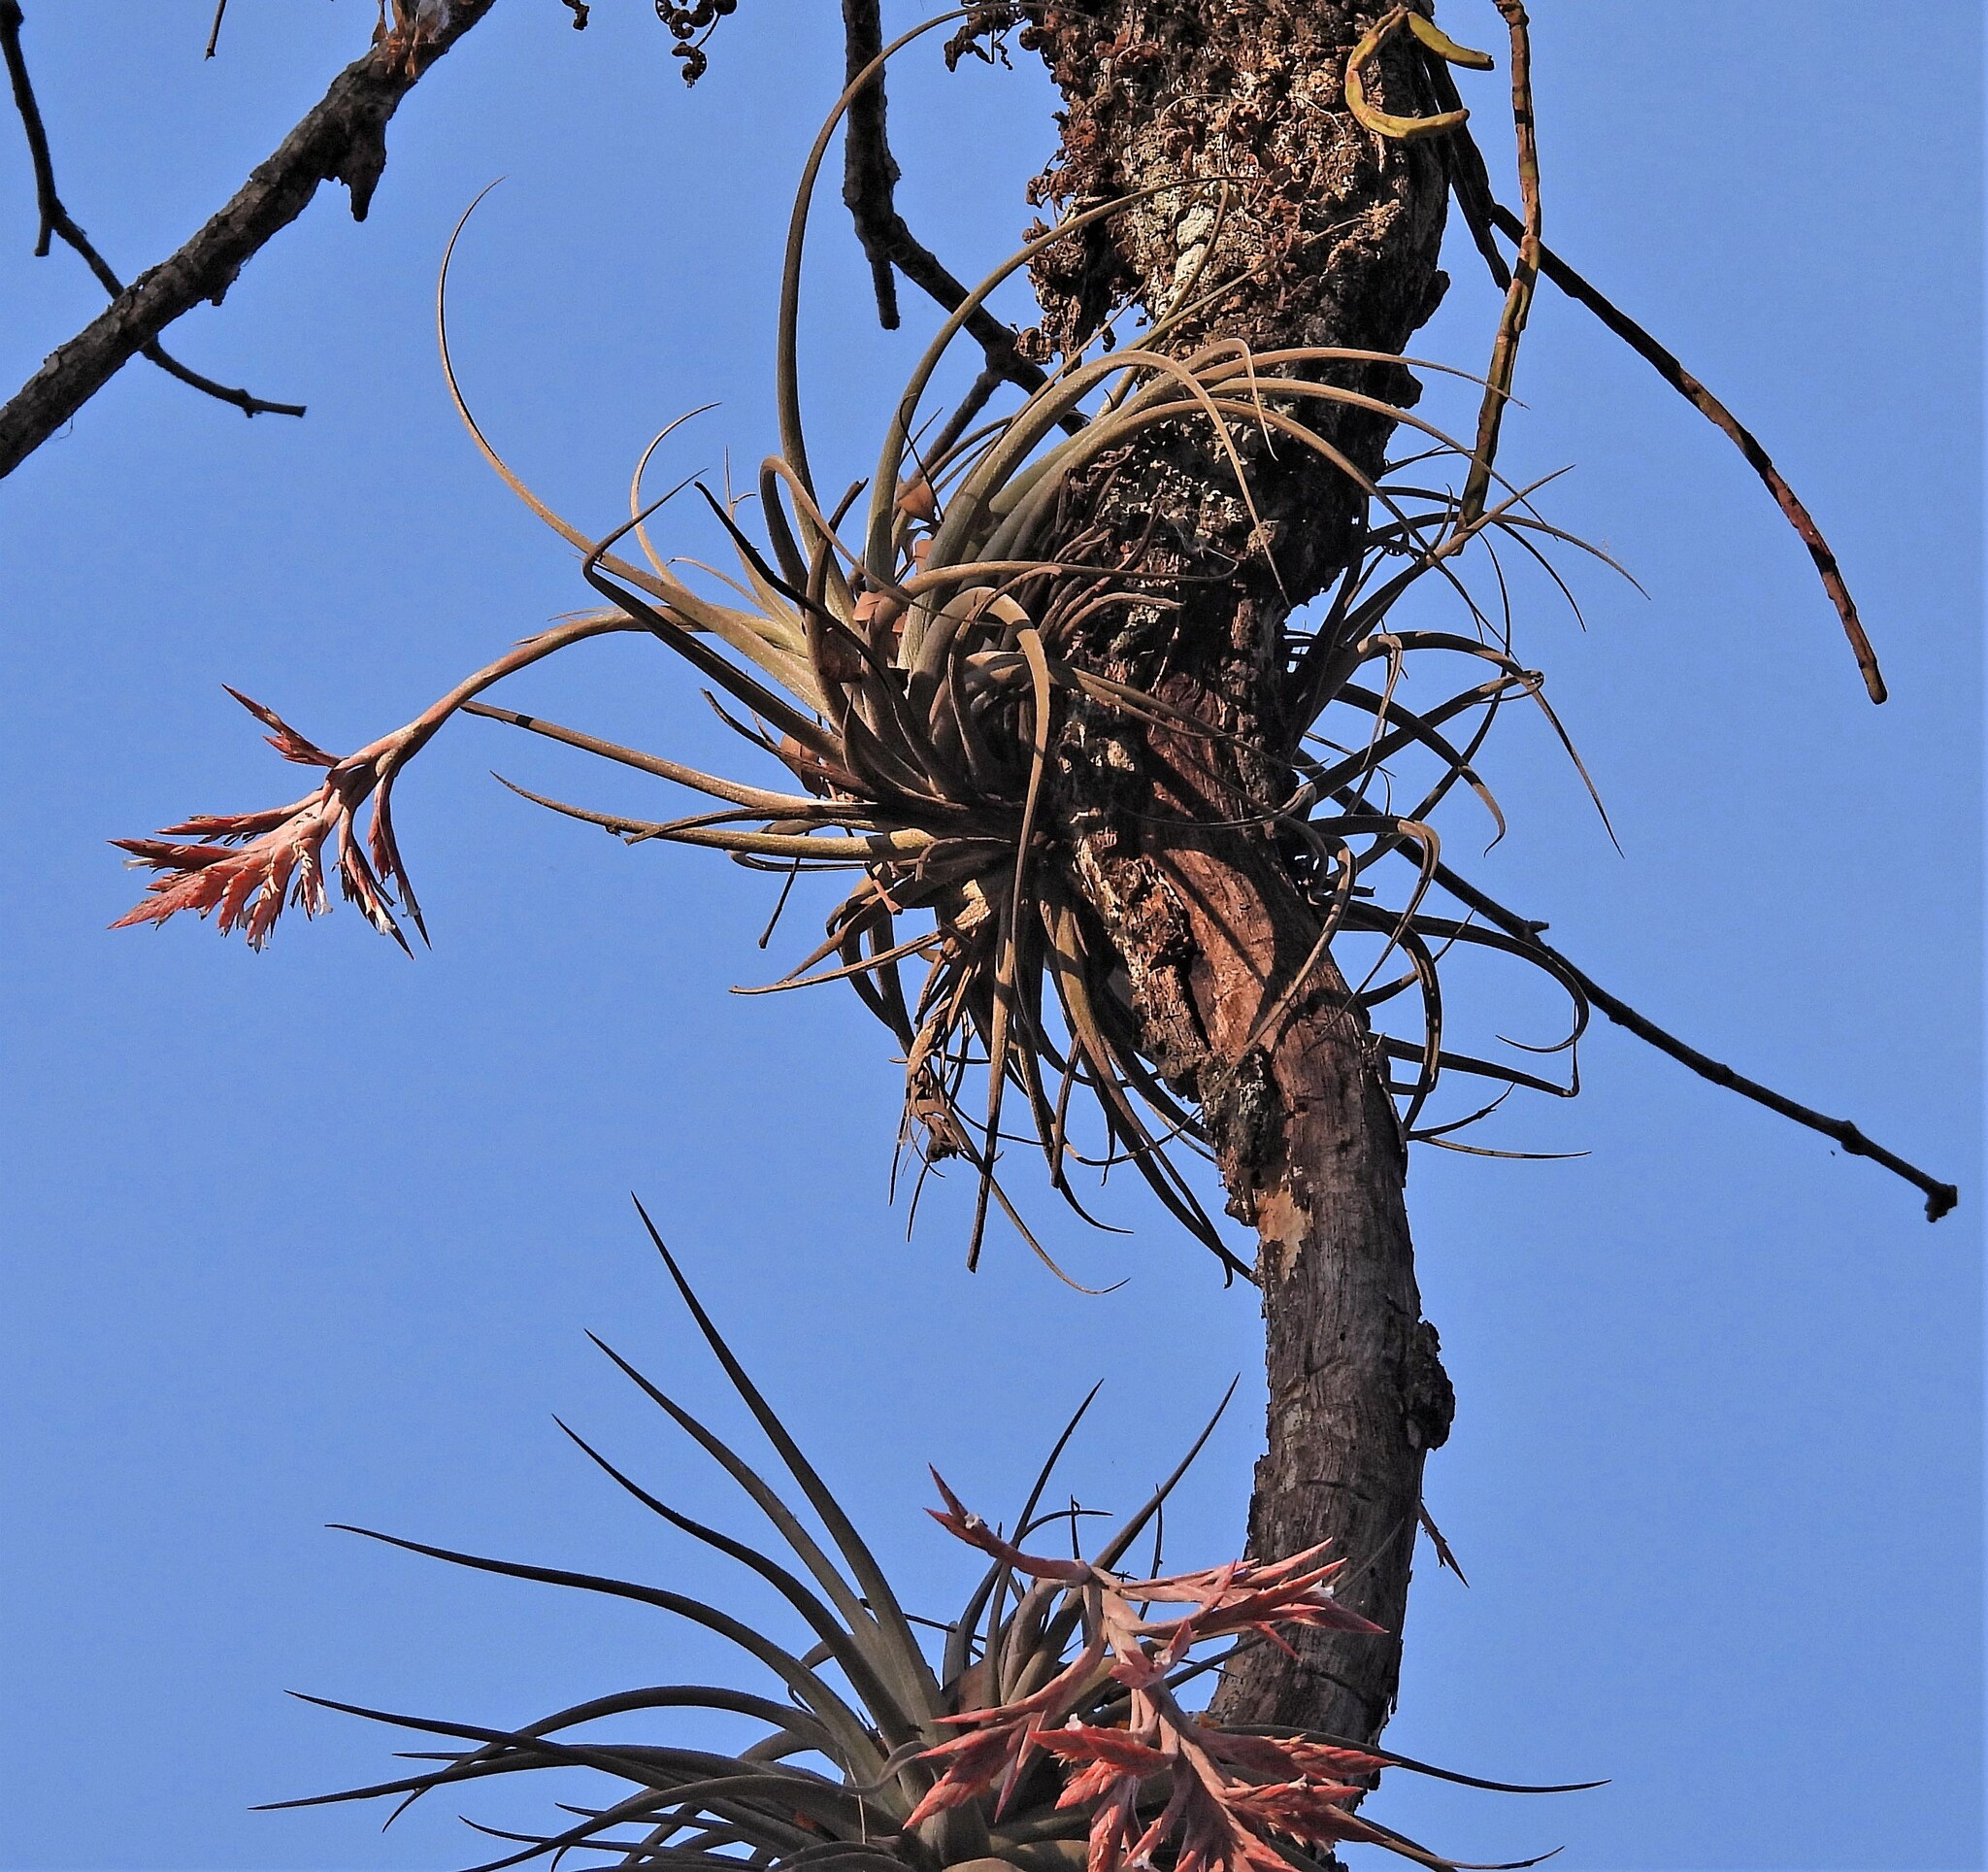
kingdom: Plantae
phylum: Tracheophyta
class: Liliopsida
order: Poales
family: Bromeliaceae
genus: Tillandsia
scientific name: Tillandsia didisticha
